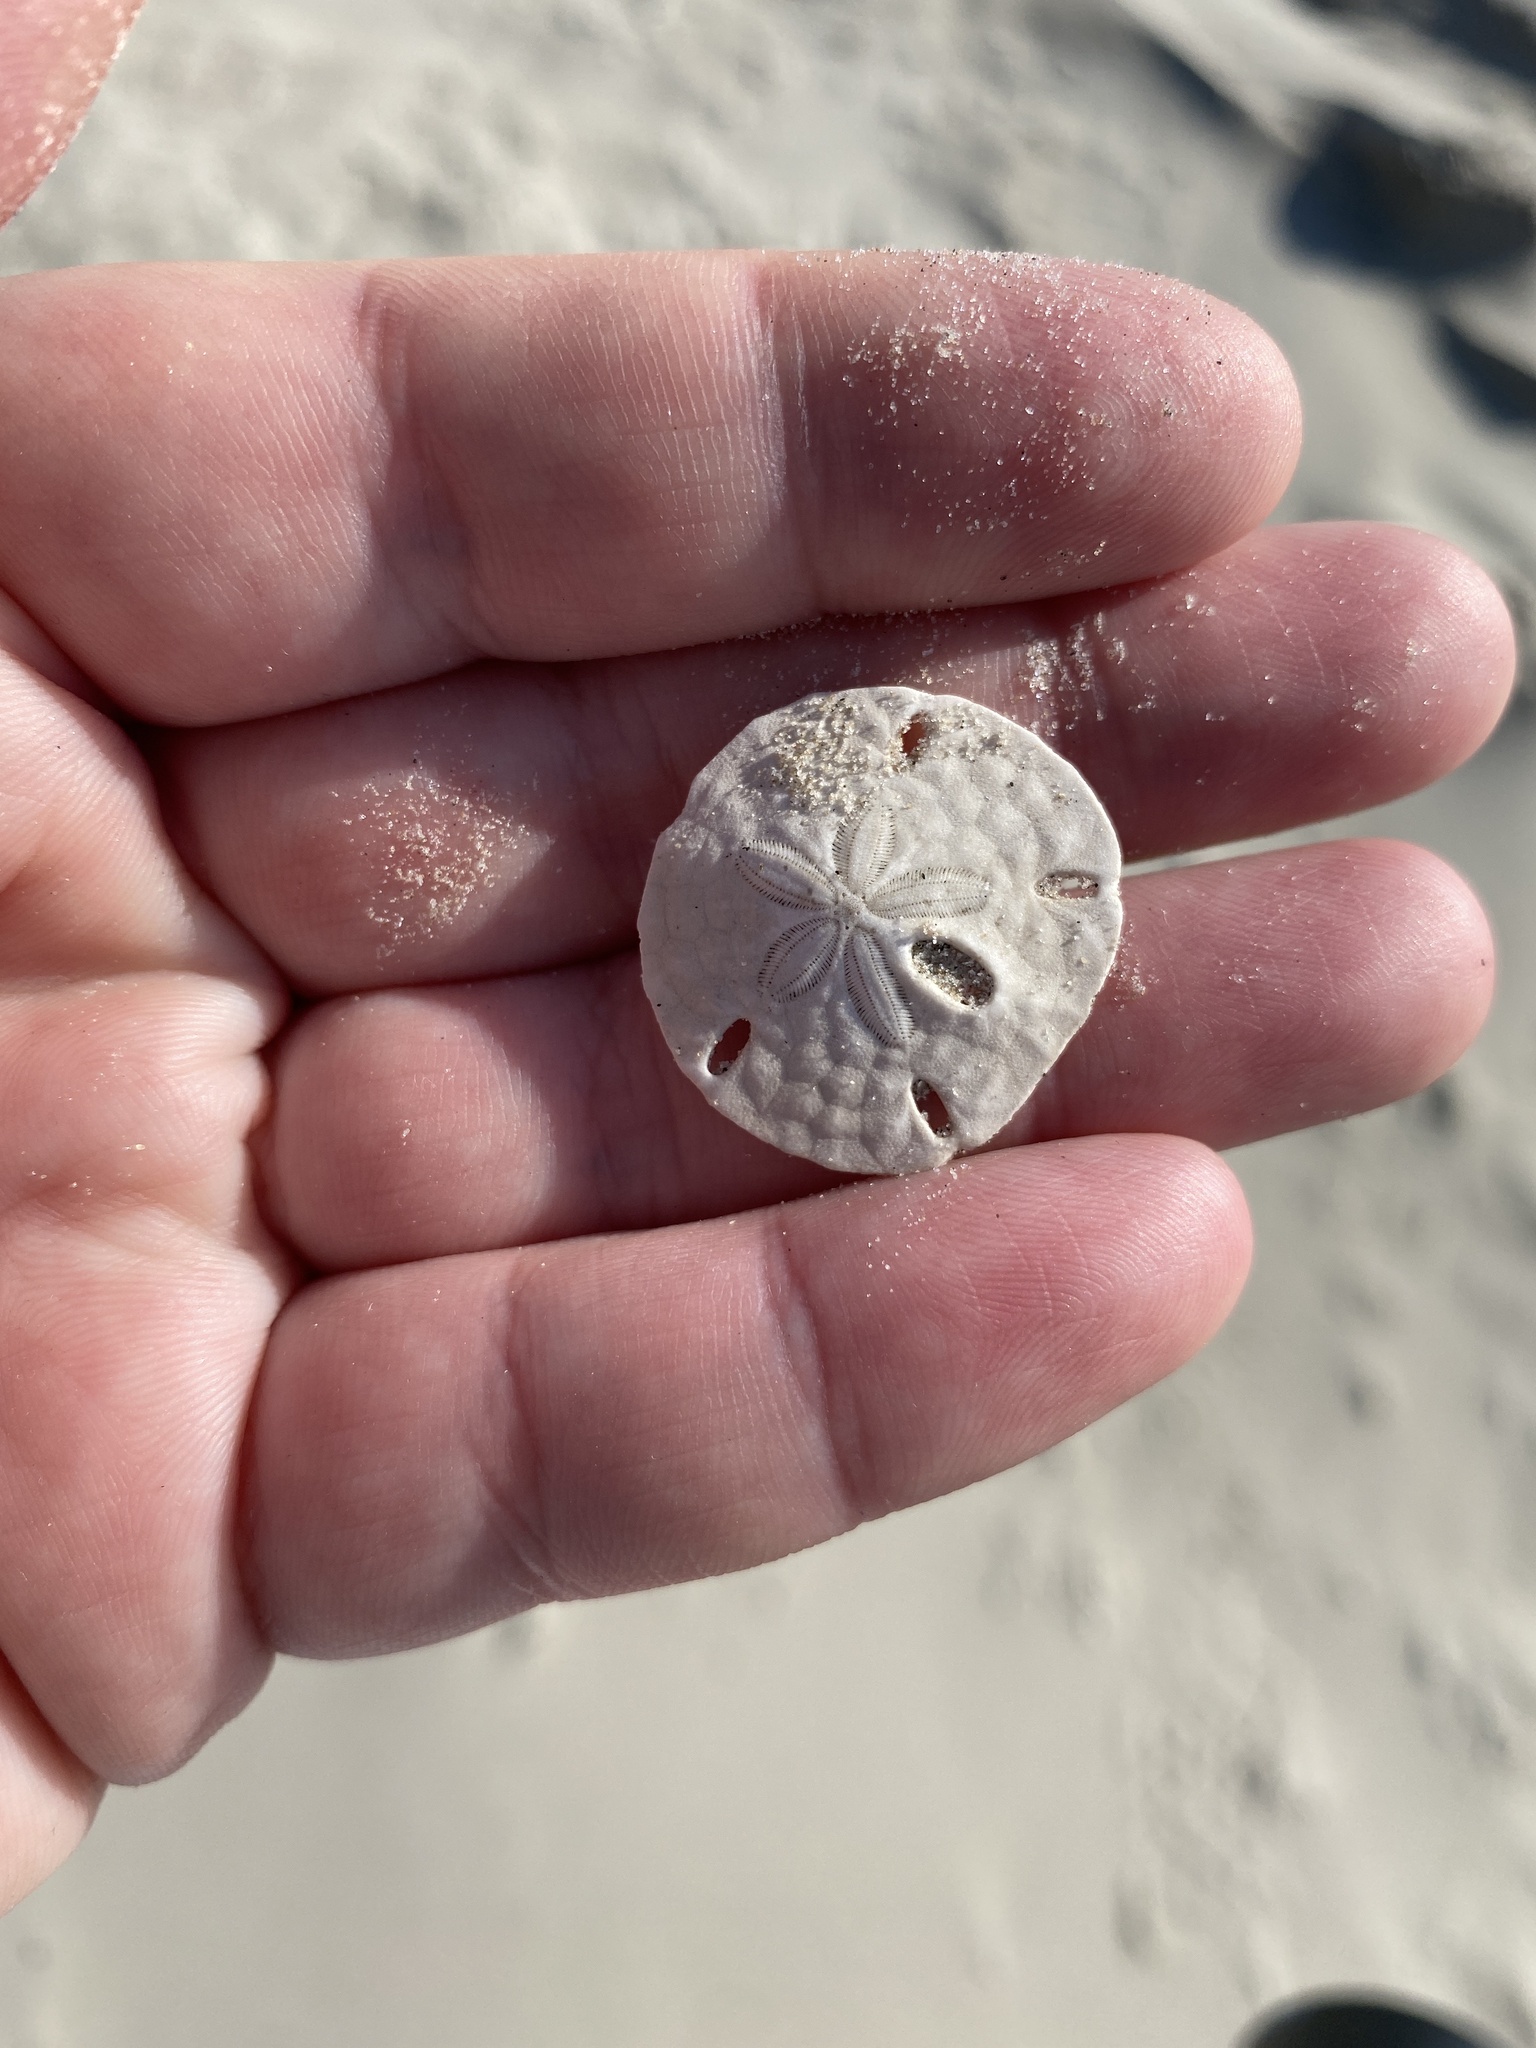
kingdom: Animalia
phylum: Echinodermata
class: Echinoidea
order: Echinolampadacea
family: Mellitidae
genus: Mellita
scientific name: Mellita quinquiesperforata
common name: Sand dollar
